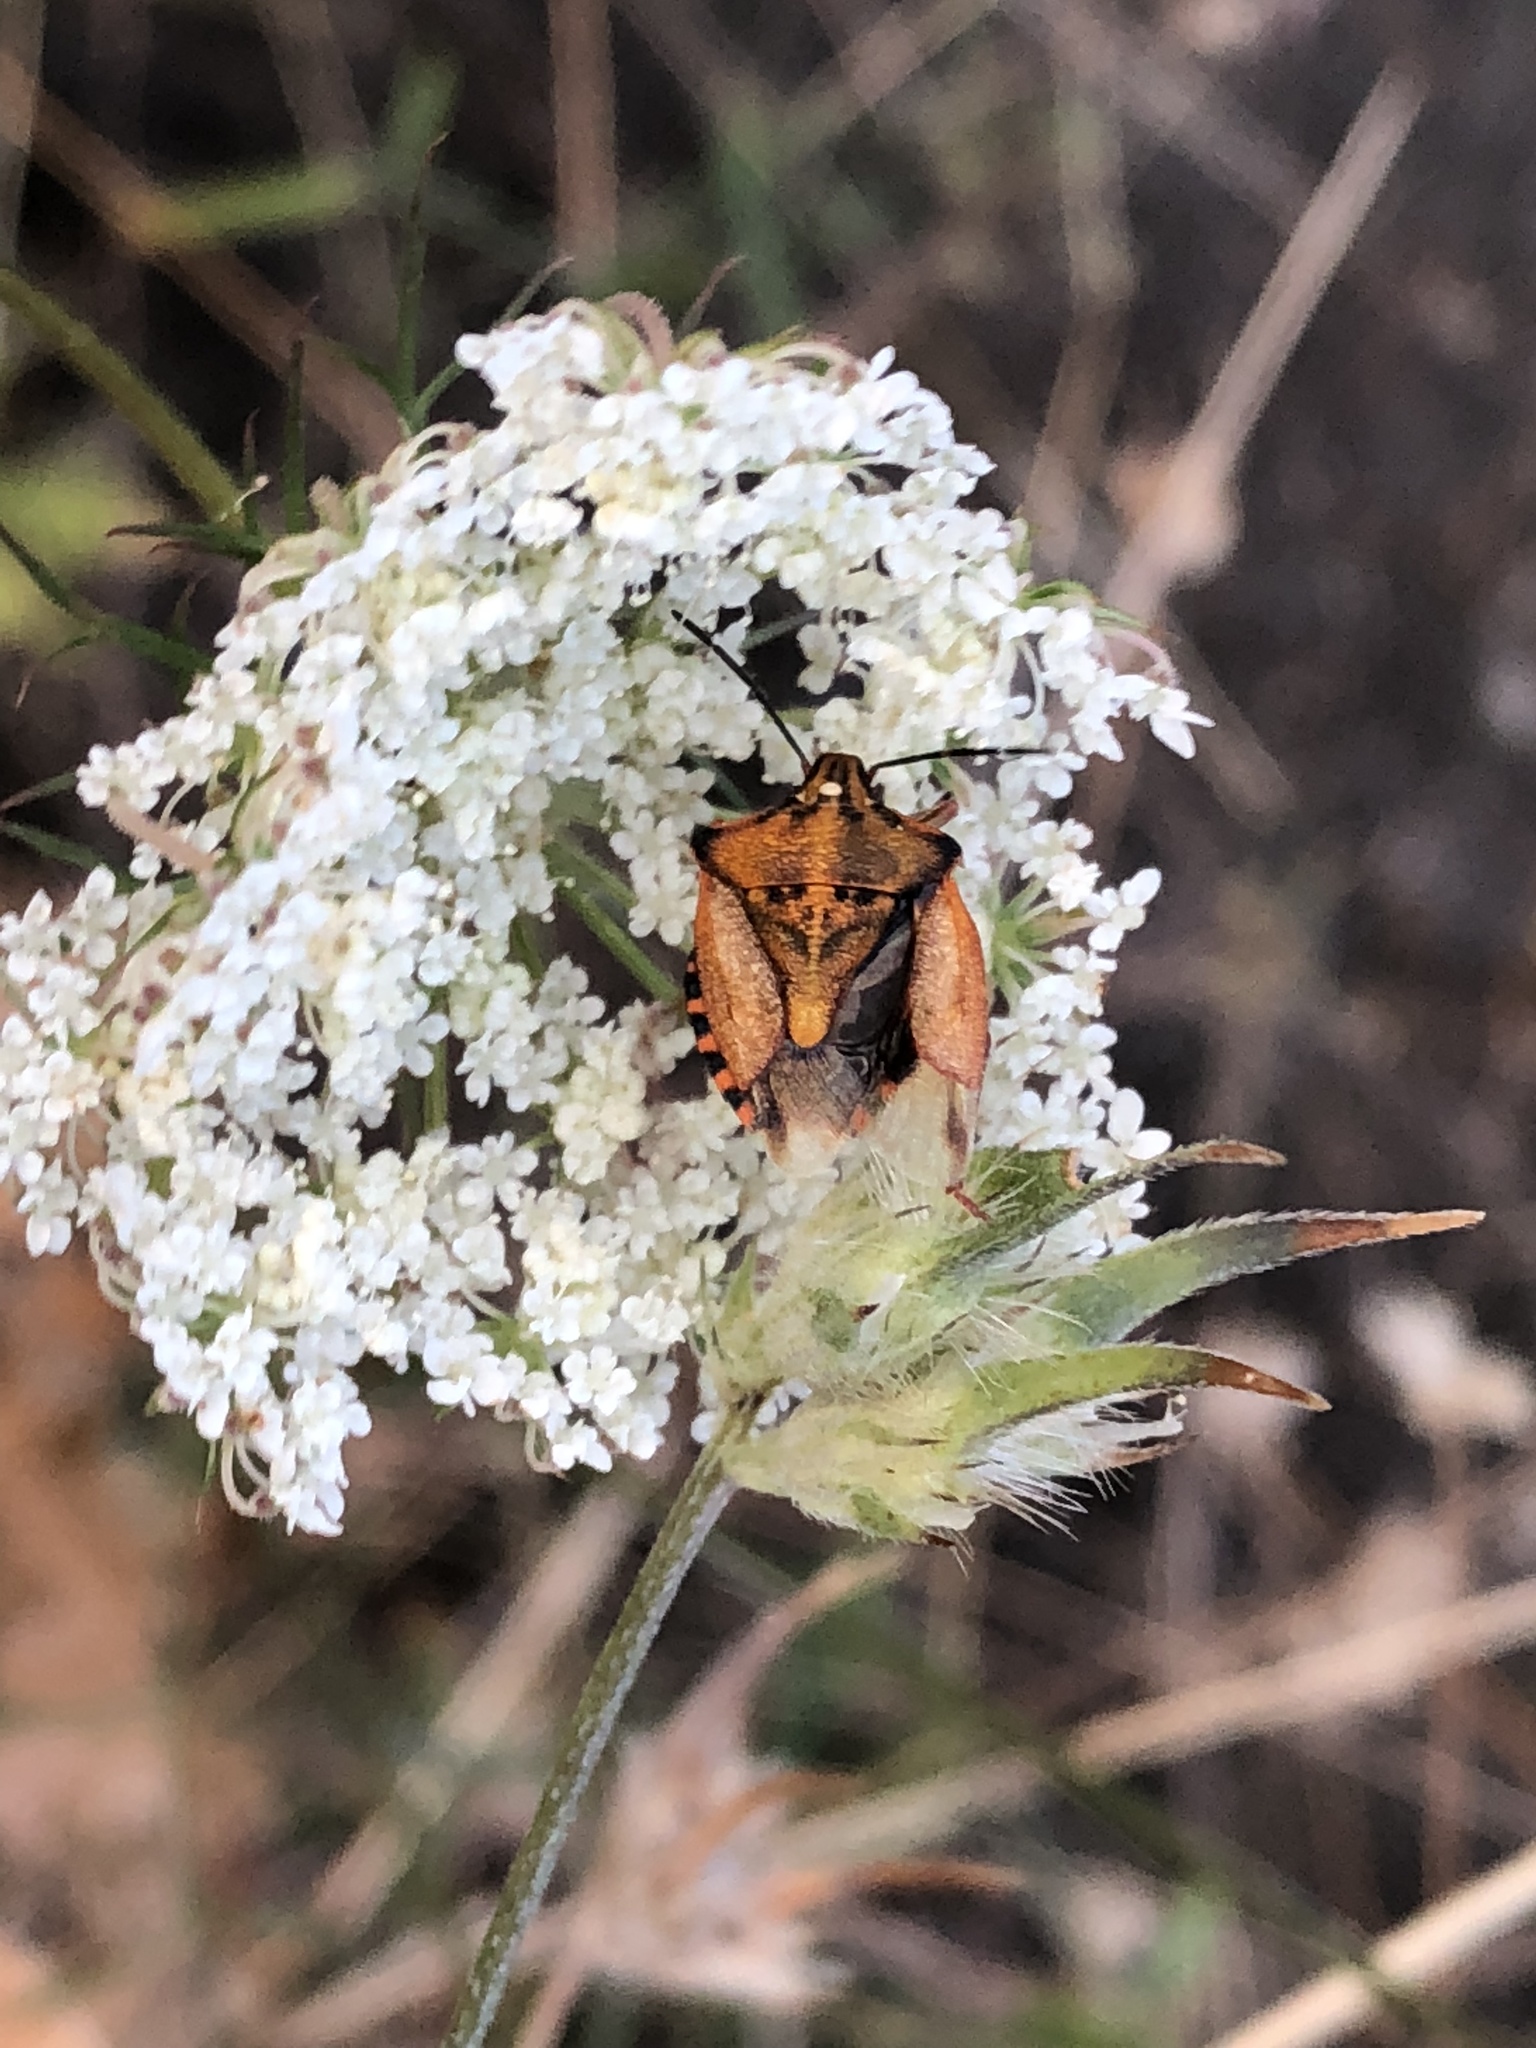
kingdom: Animalia
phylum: Arthropoda
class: Insecta
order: Hemiptera
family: Pentatomidae
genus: Carpocoris
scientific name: Carpocoris mediterraneus
